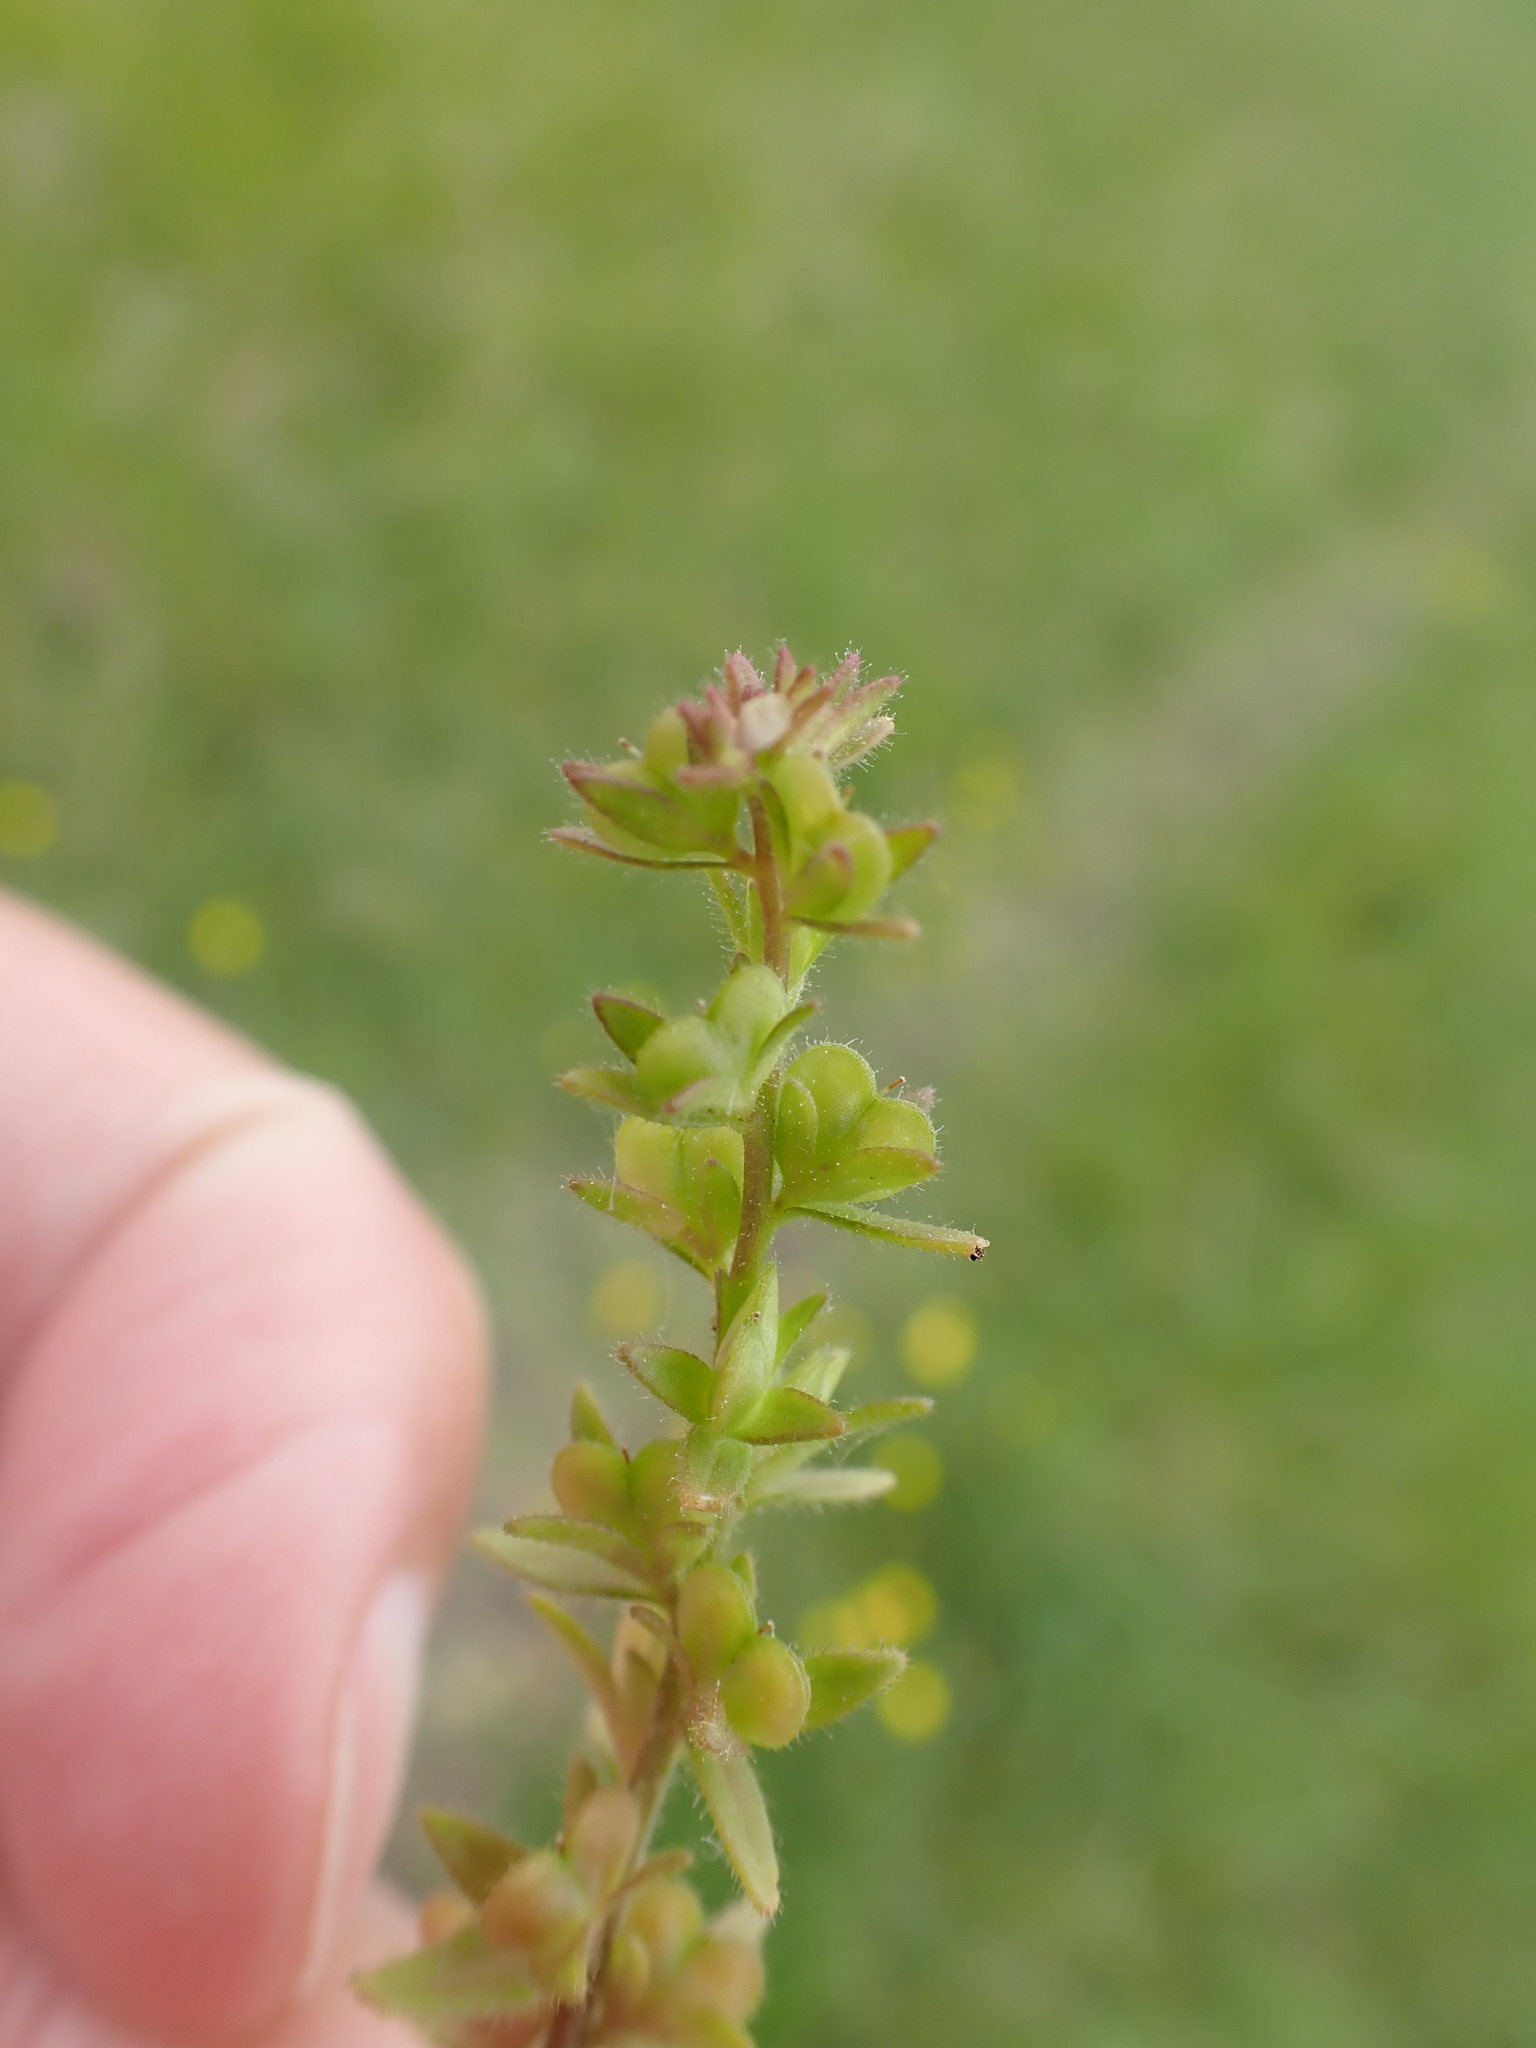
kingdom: Plantae
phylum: Tracheophyta
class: Magnoliopsida
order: Lamiales
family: Plantaginaceae
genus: Veronica
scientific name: Veronica arvensis
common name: Corn speedwell
